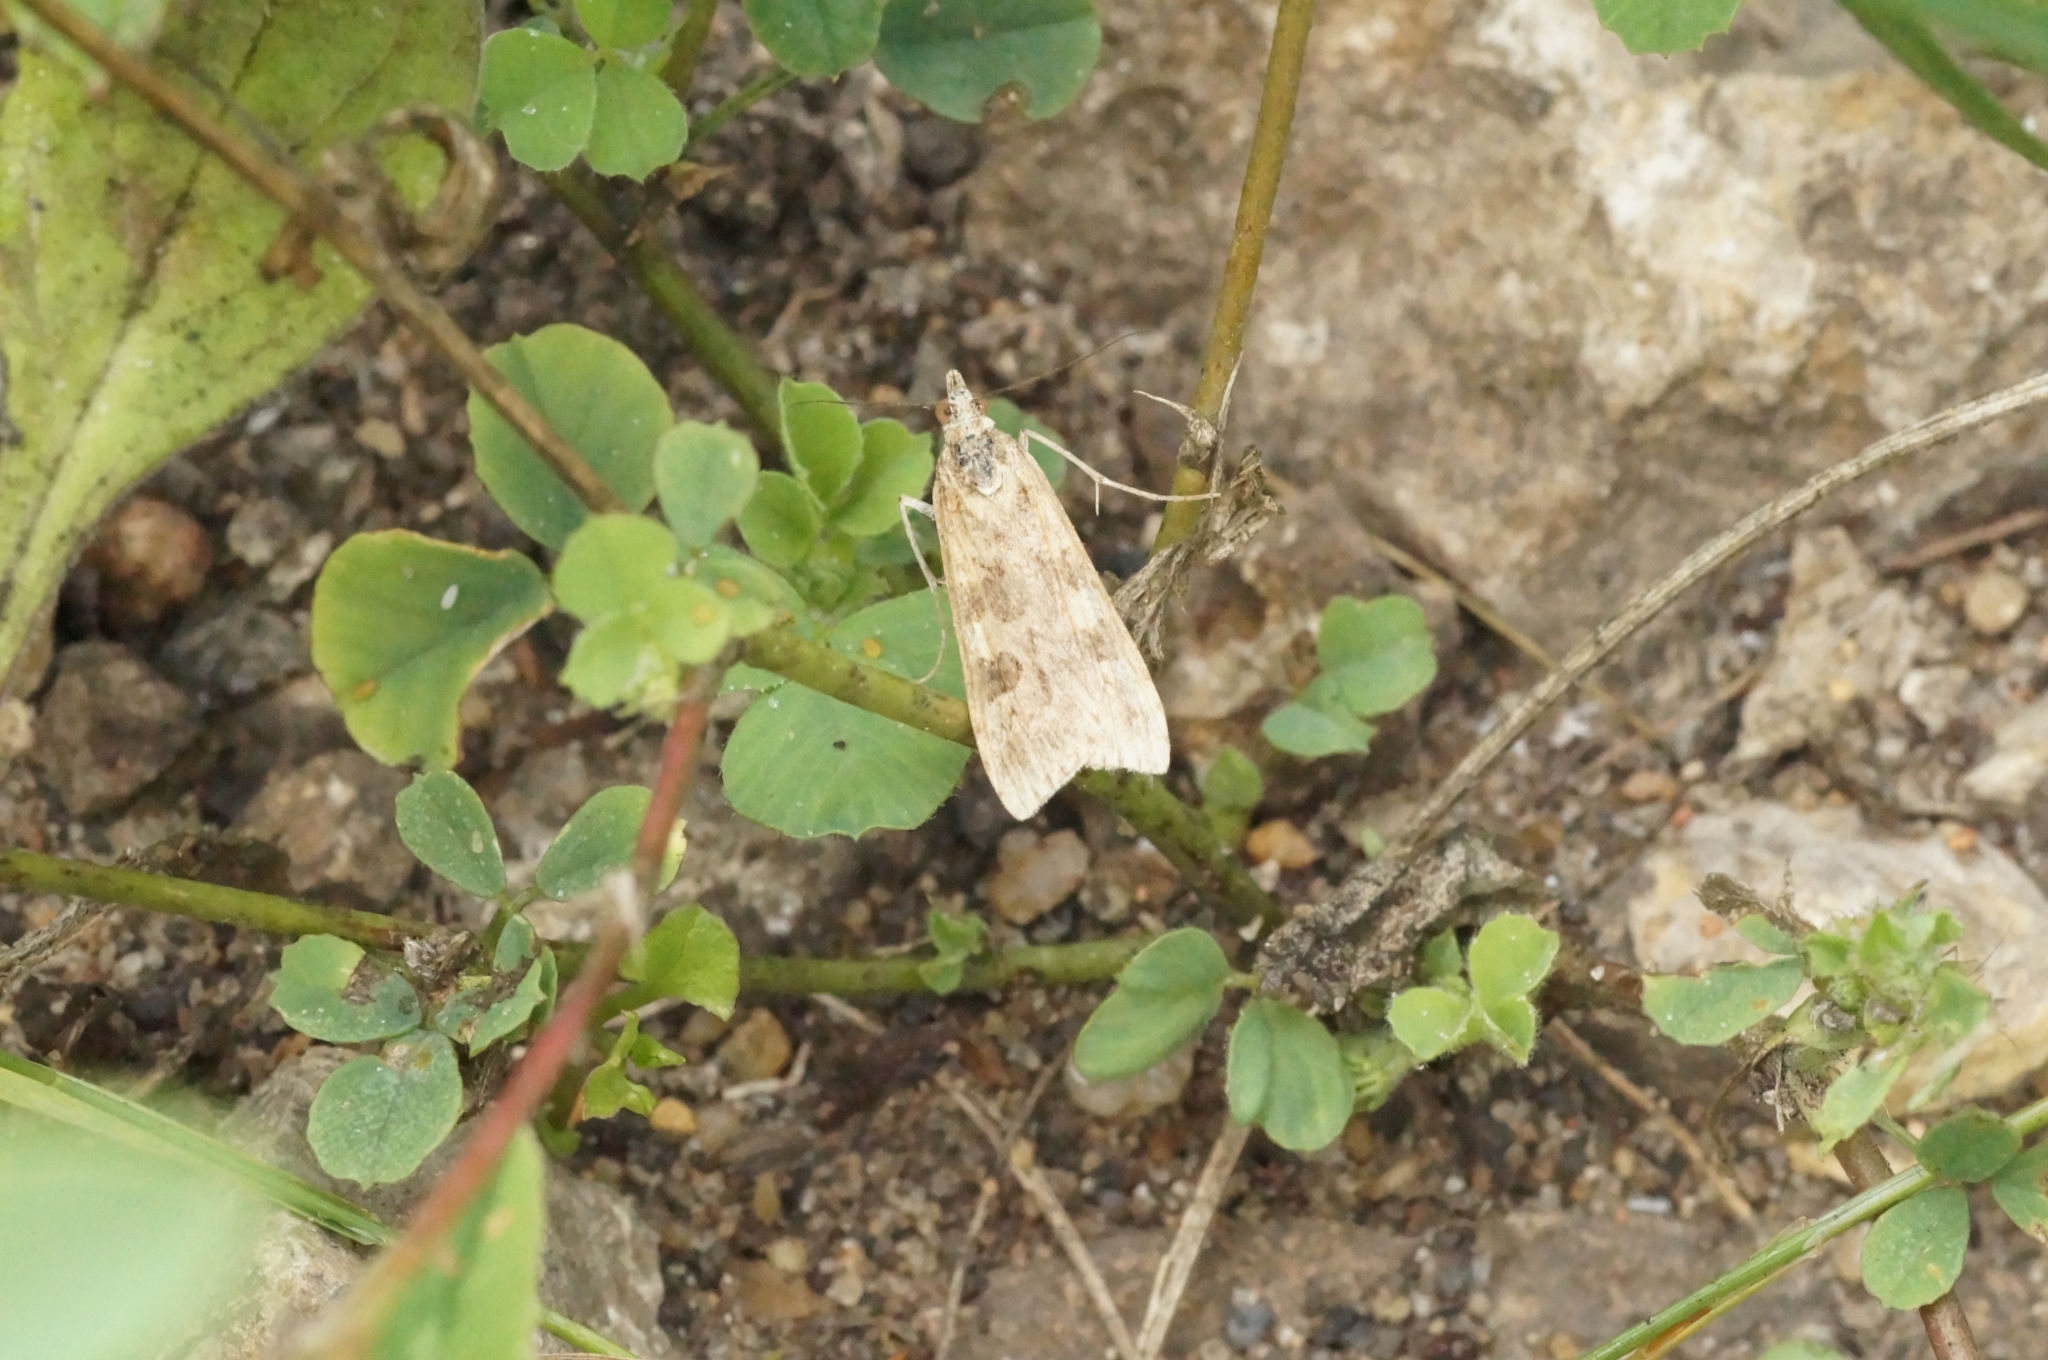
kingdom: Animalia
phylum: Arthropoda
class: Insecta
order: Lepidoptera
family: Crambidae
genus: Nomophila
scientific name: Nomophila noctuella
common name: Rush veneer
